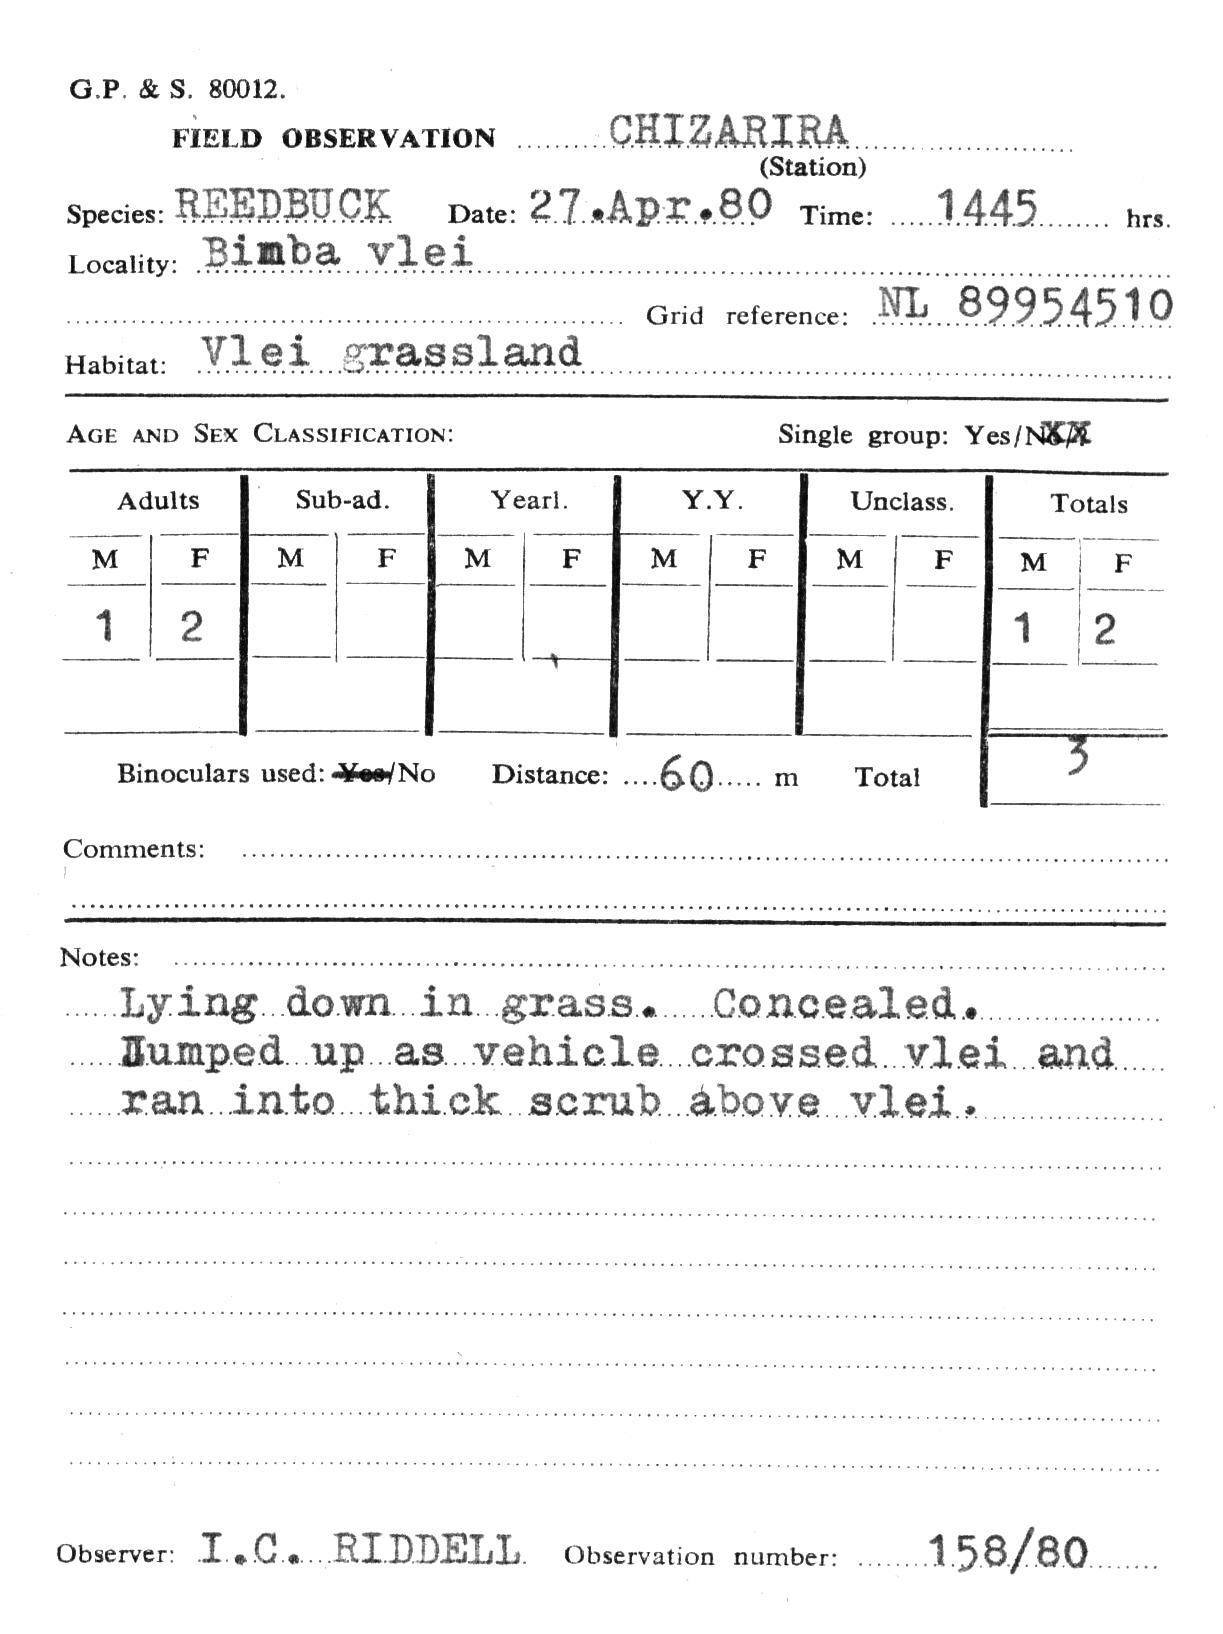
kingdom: Animalia
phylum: Chordata
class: Mammalia
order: Artiodactyla
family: Bovidae
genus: Redunca
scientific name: Redunca arundinum
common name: Southern reedbuck
